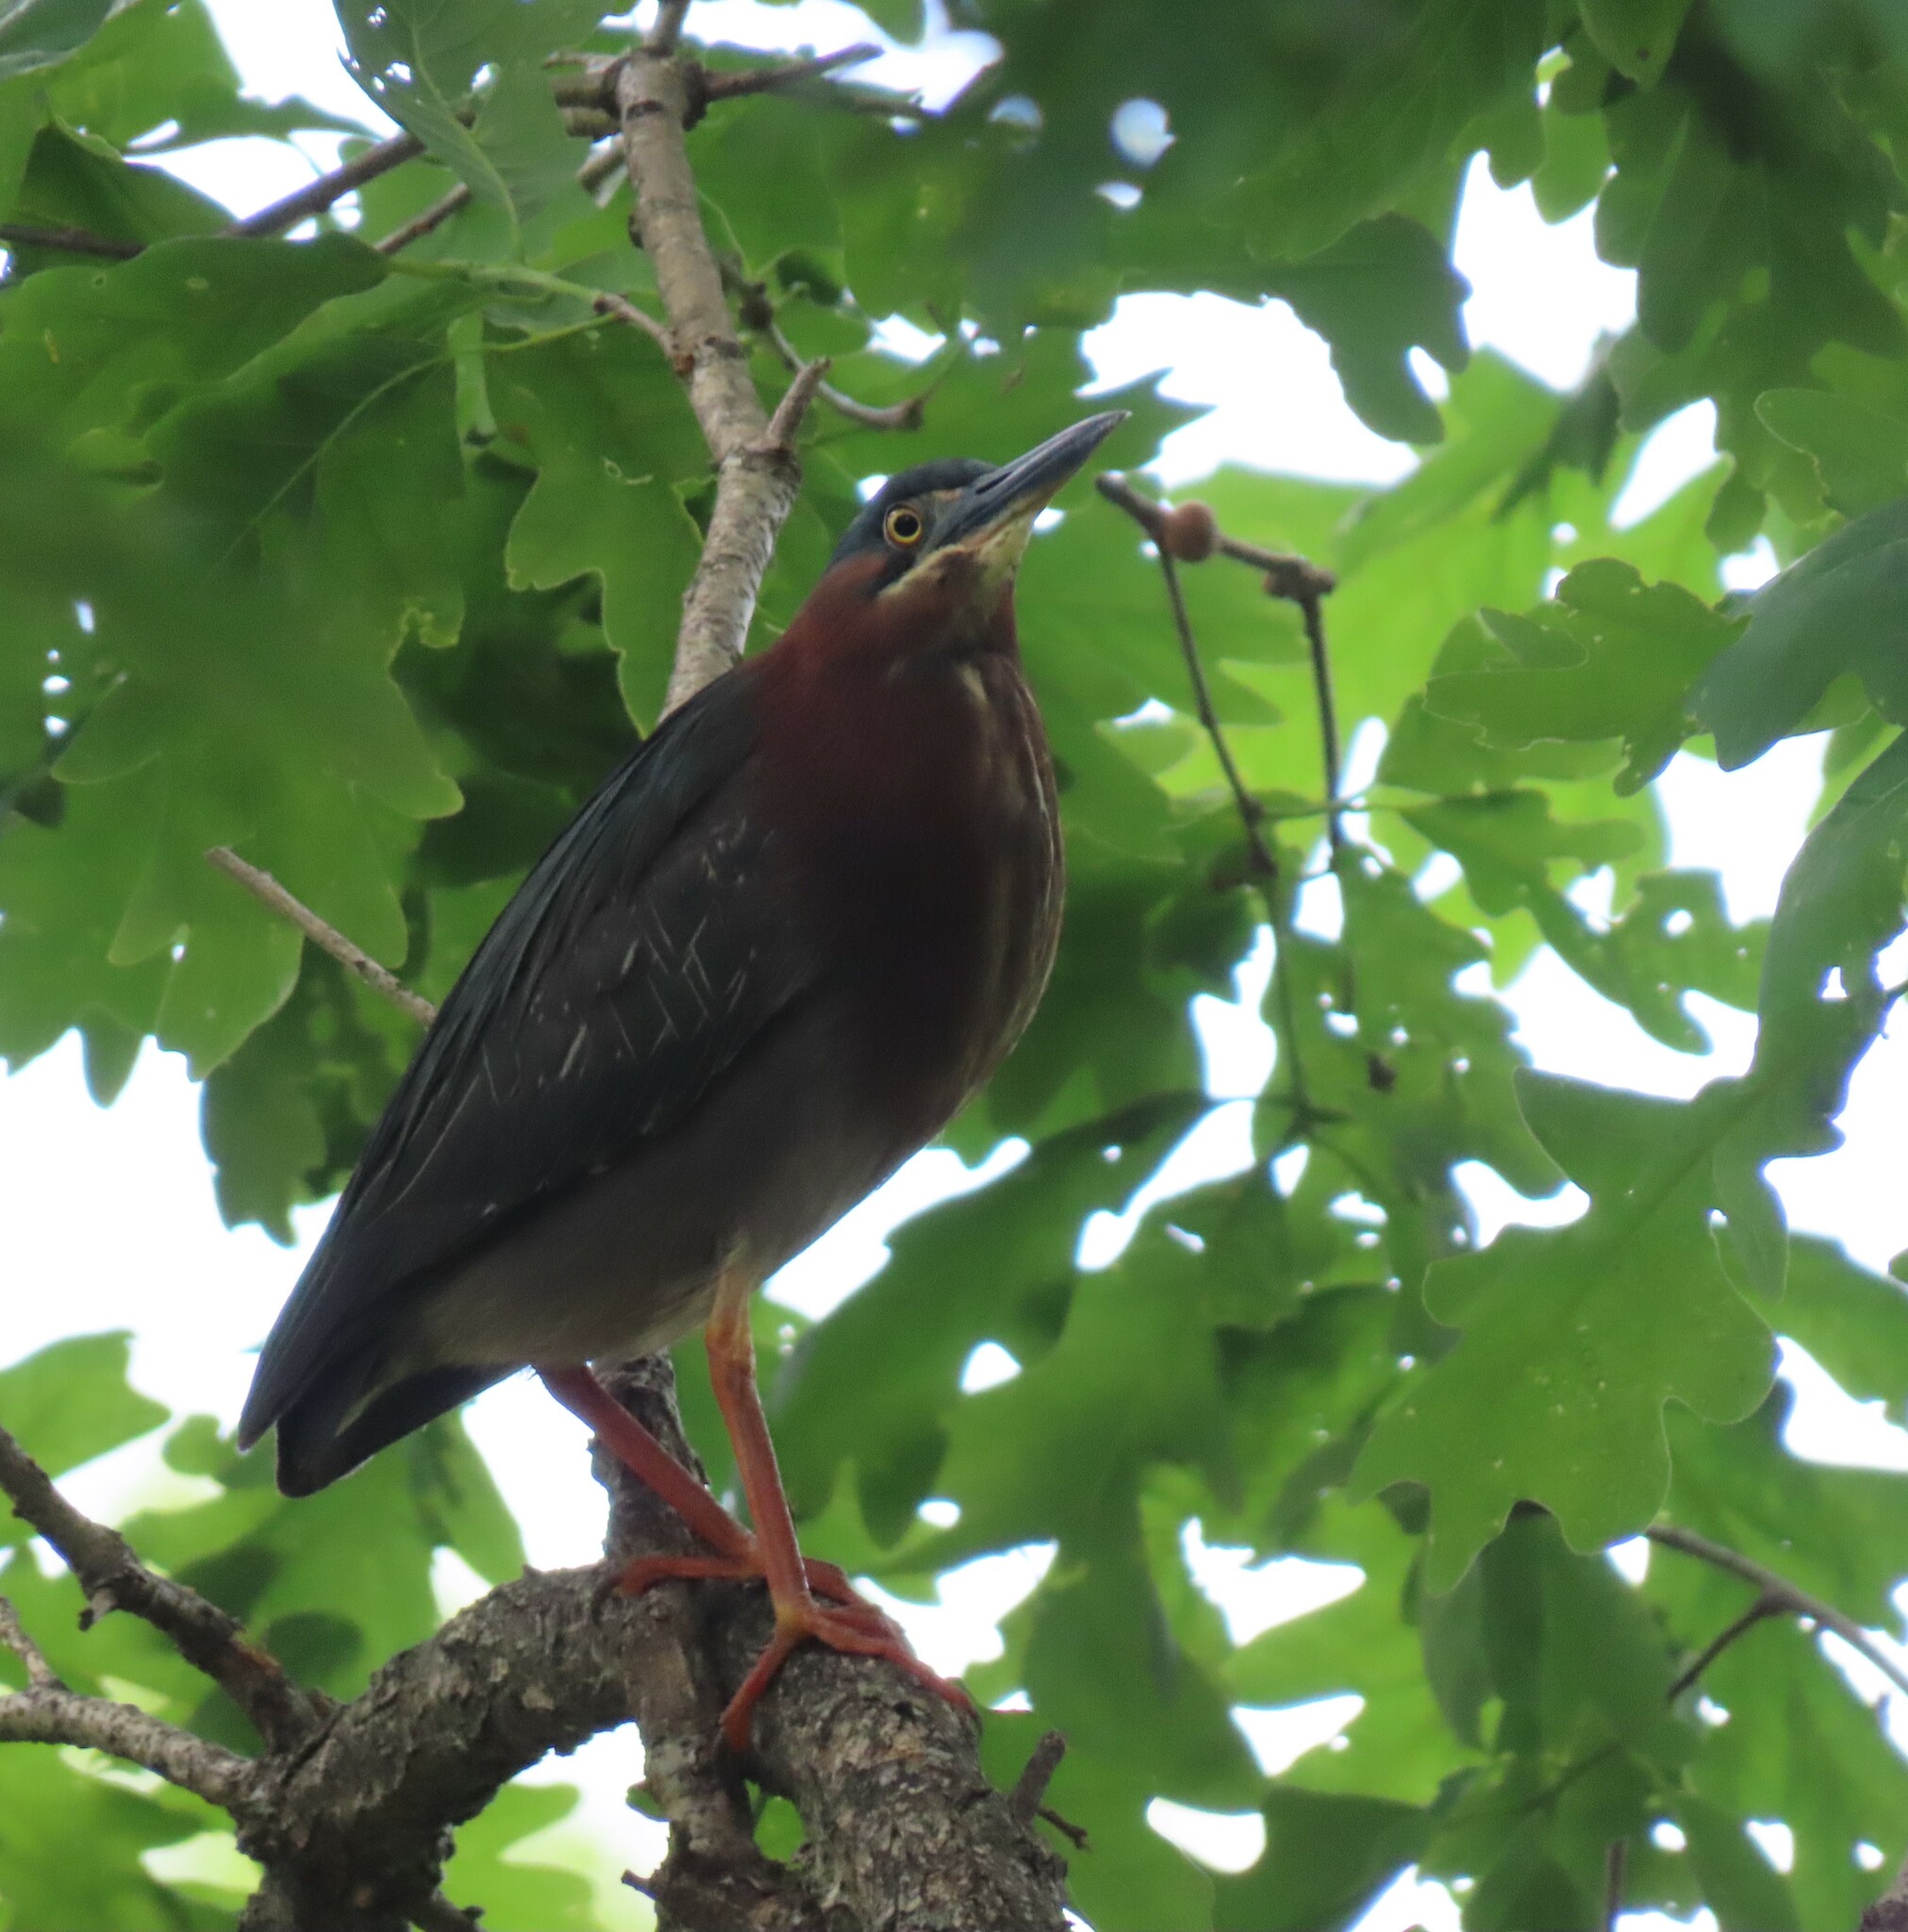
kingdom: Animalia
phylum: Chordata
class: Aves
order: Pelecaniformes
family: Ardeidae
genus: Butorides
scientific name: Butorides virescens
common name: Green heron
